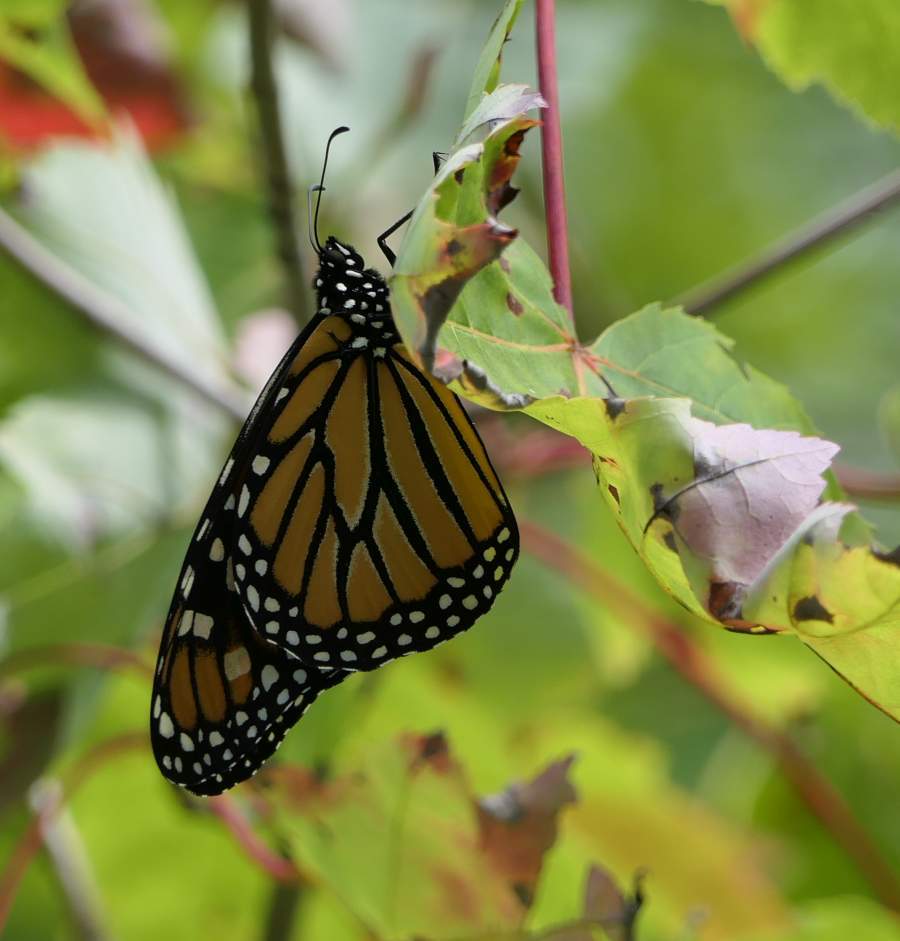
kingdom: Animalia
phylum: Arthropoda
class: Insecta
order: Lepidoptera
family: Nymphalidae
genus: Danaus
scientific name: Danaus plexippus
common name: Monarch
